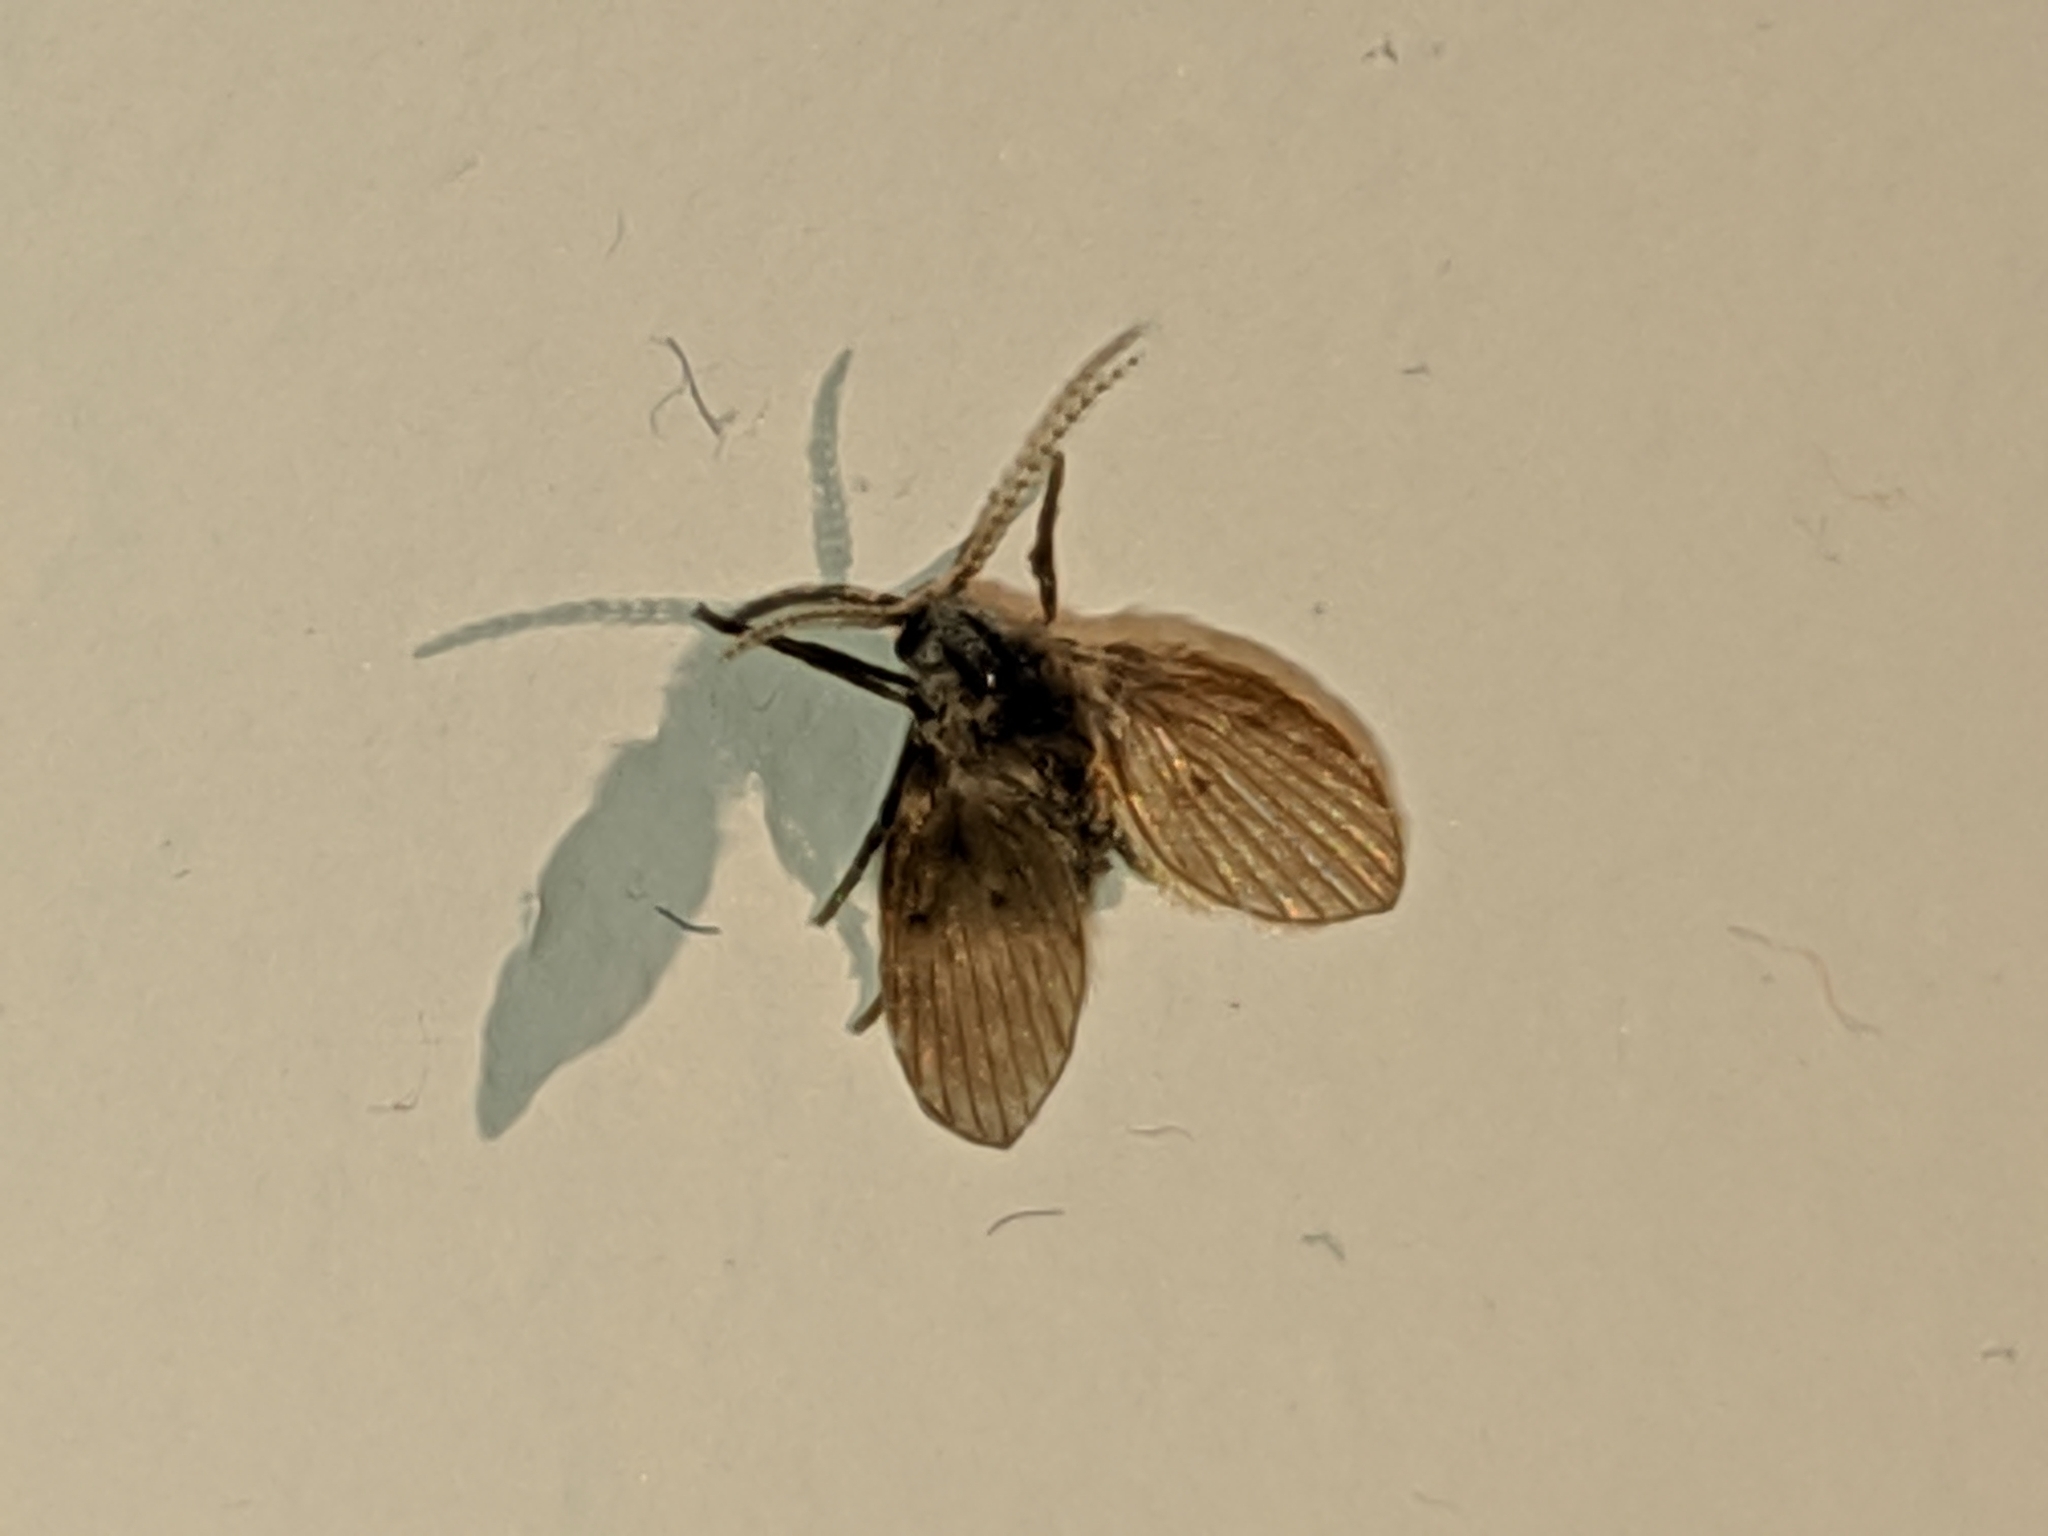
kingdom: Animalia
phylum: Arthropoda
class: Insecta
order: Diptera
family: Psychodidae
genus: Clogmia
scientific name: Clogmia albipunctatus
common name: White-spotted moth fly
